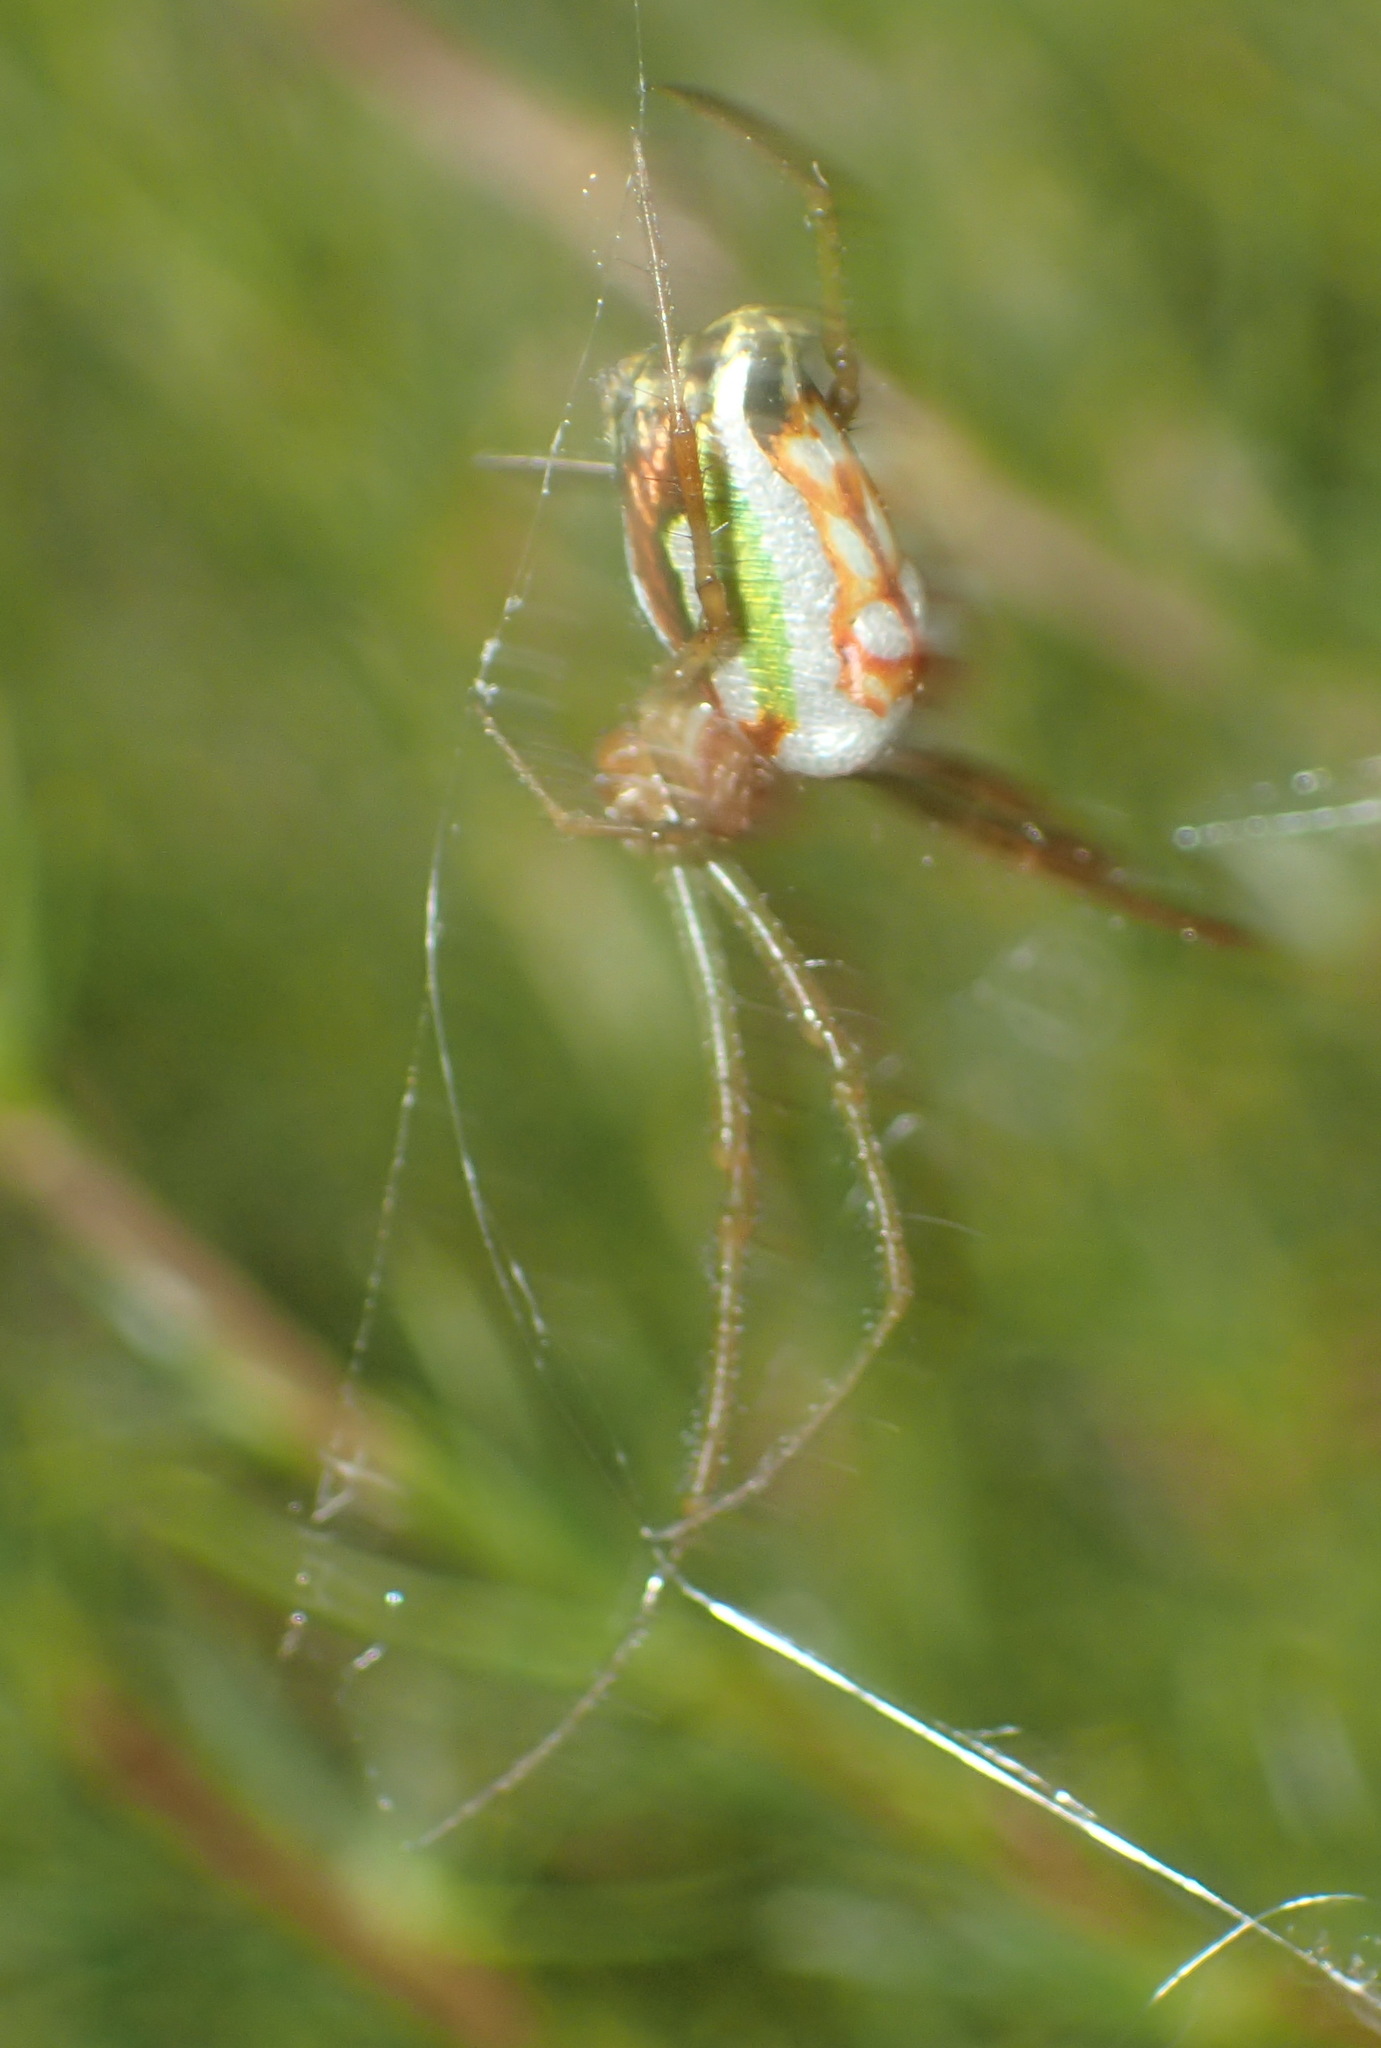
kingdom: Animalia
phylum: Arthropoda
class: Arachnida
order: Araneae
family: Tetragnathidae
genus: Leucauge
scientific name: Leucauge festiva
